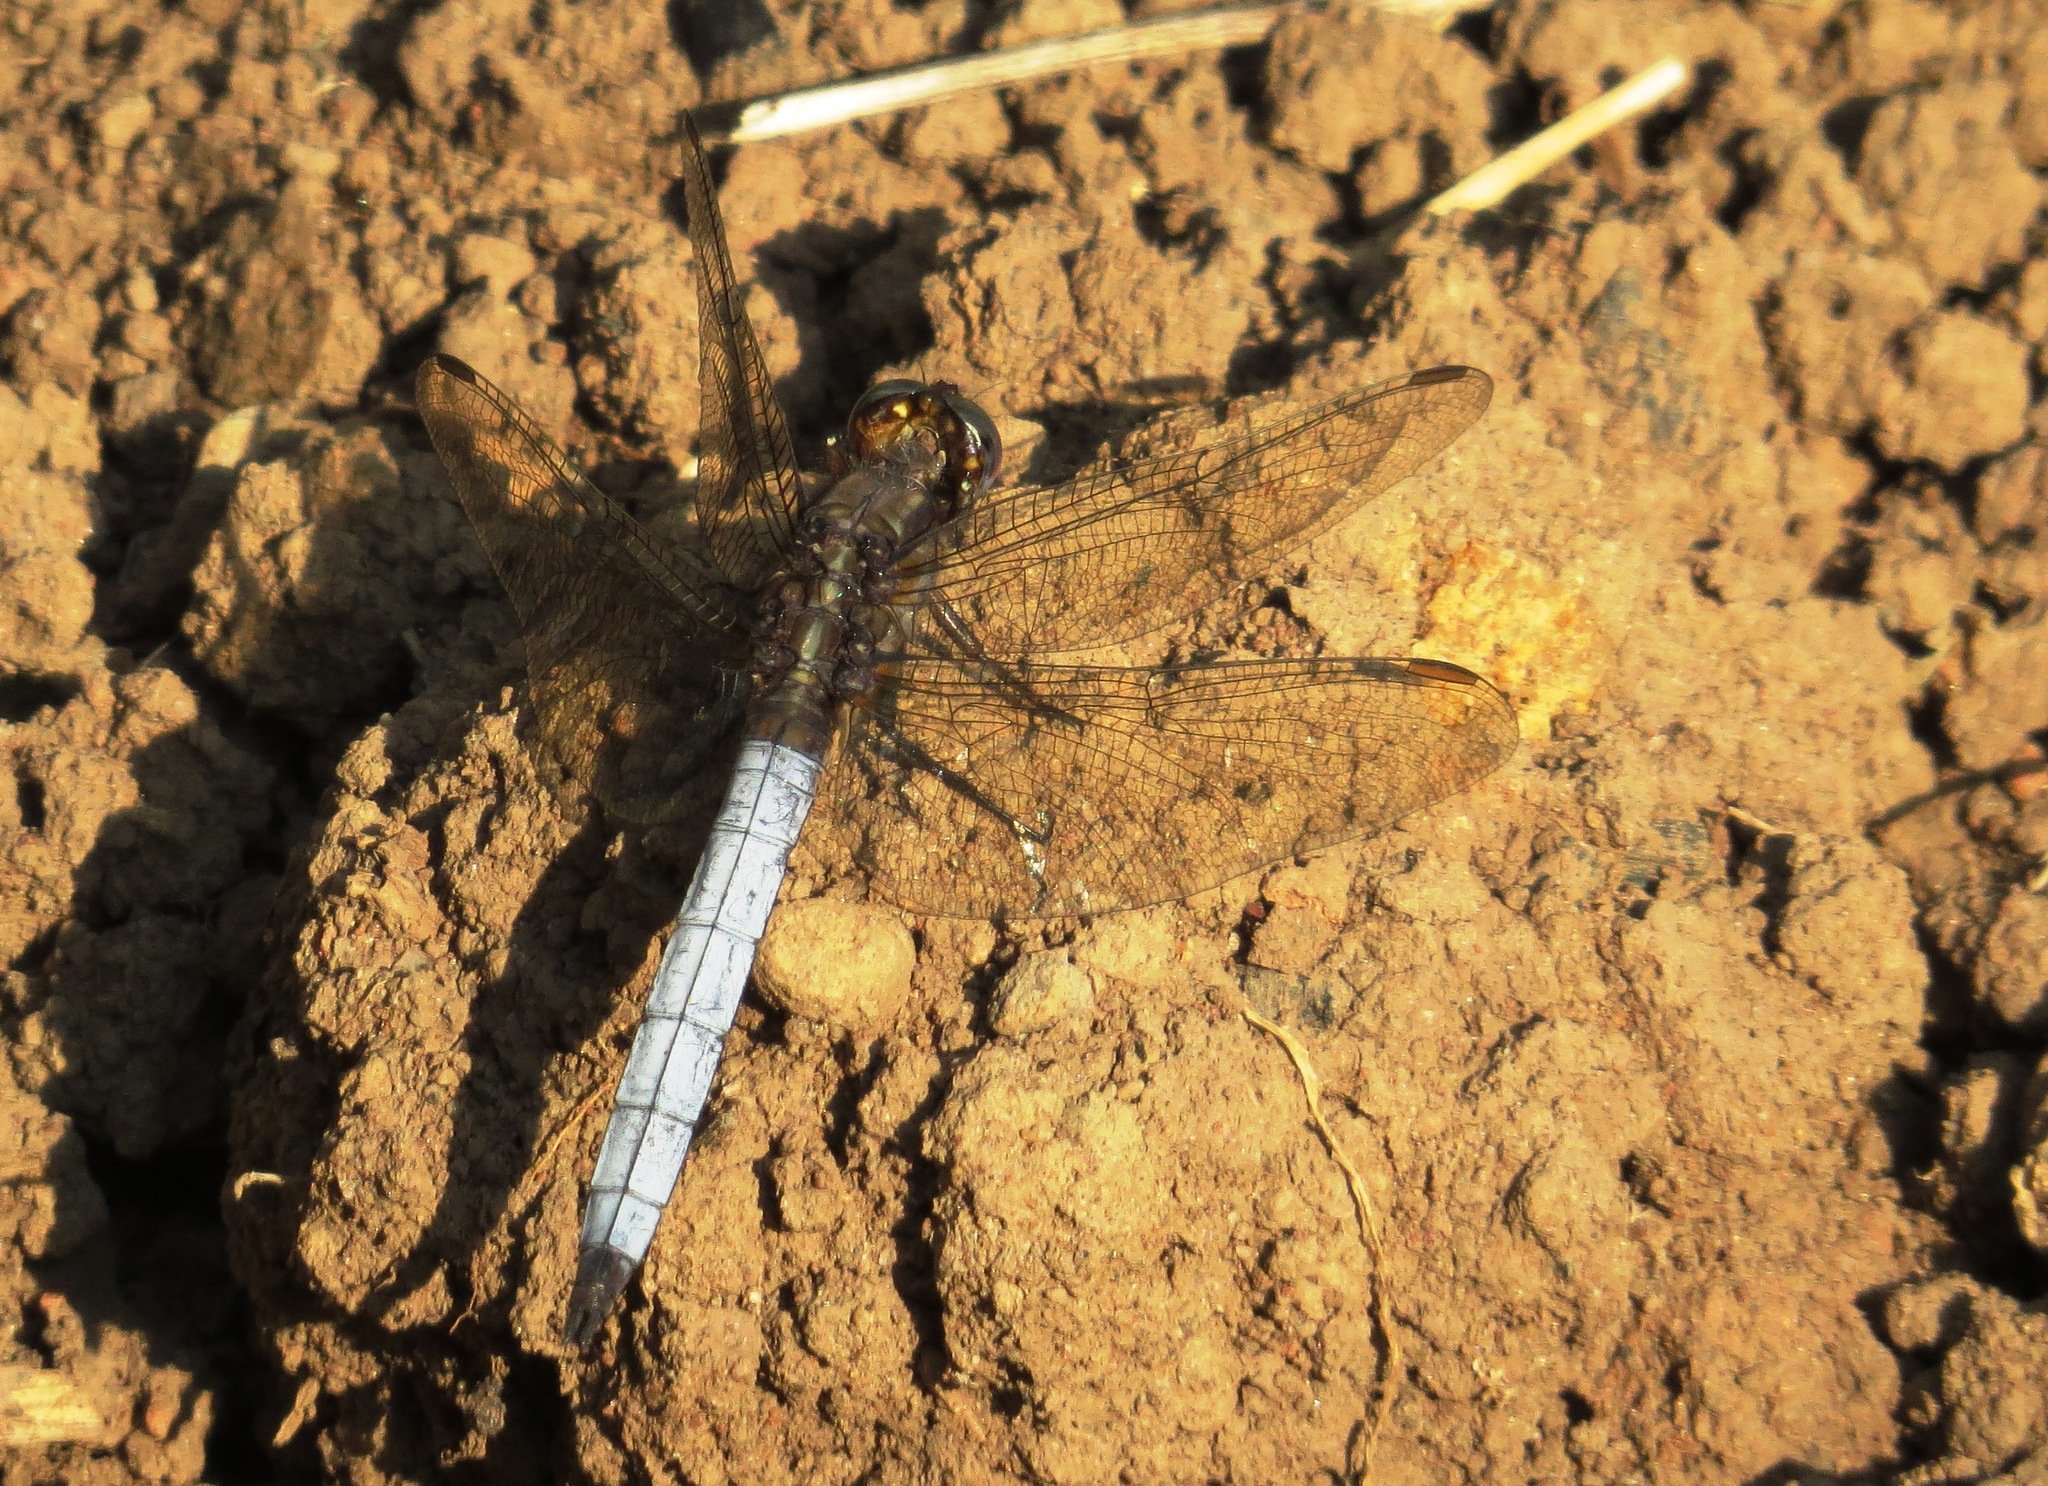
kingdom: Animalia
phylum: Arthropoda
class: Insecta
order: Odonata
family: Libellulidae
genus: Orthetrum
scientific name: Orthetrum azureum
